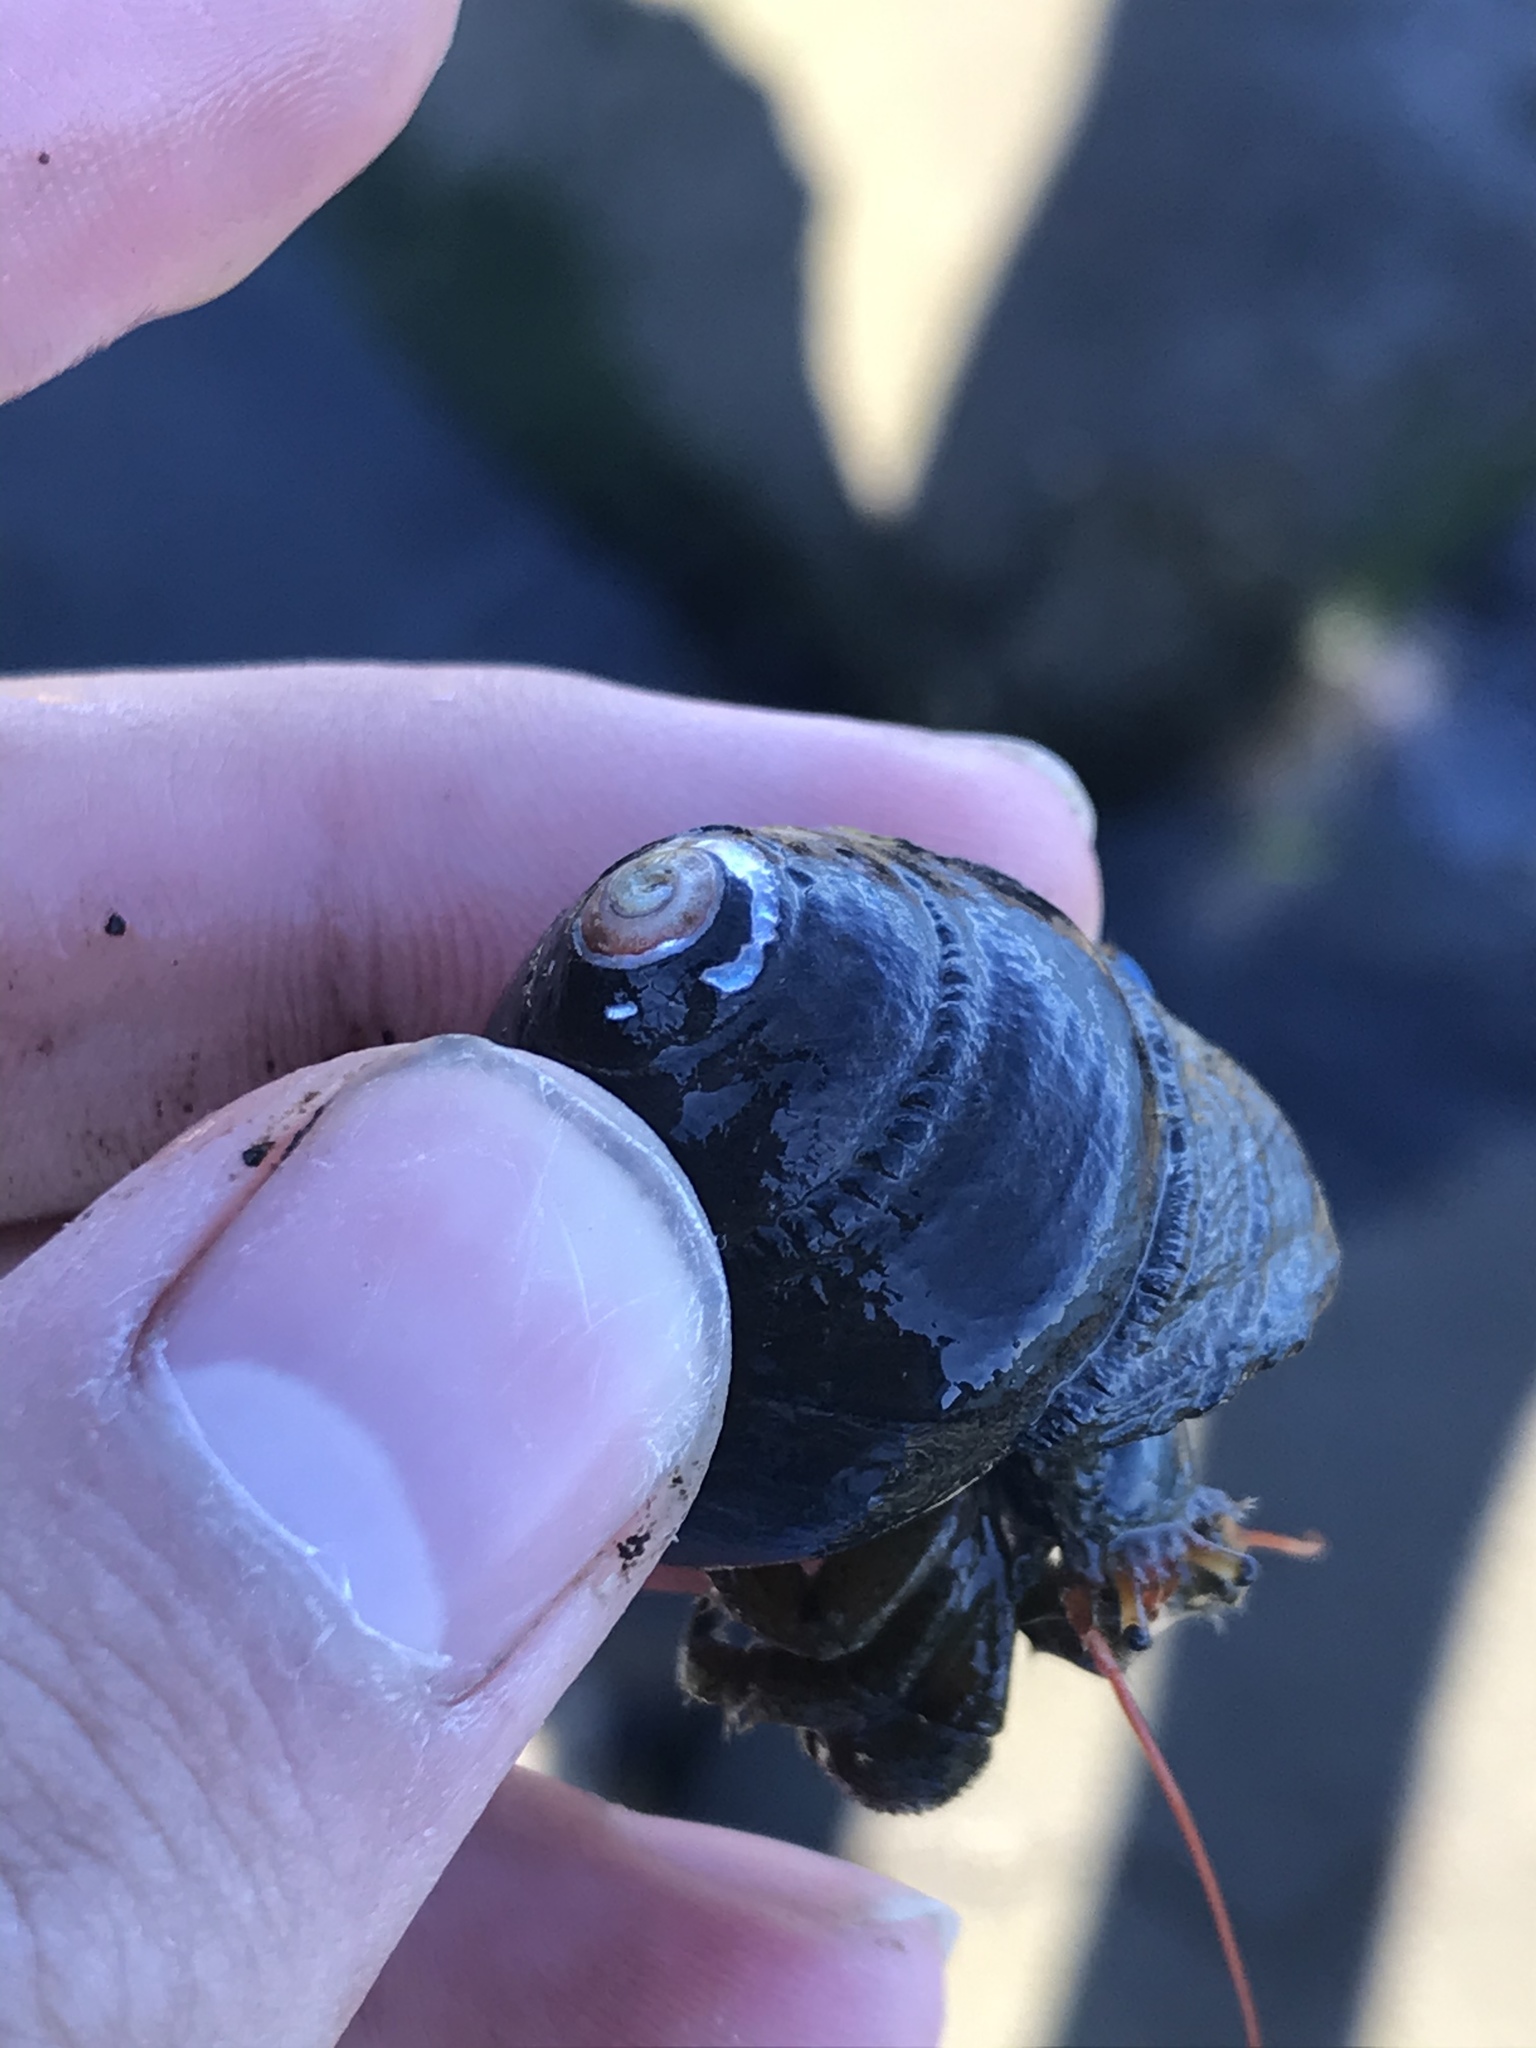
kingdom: Animalia
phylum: Mollusca
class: Gastropoda
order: Trochida
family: Tegulidae
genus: Tegula
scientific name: Tegula funebralis
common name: Black tegula
